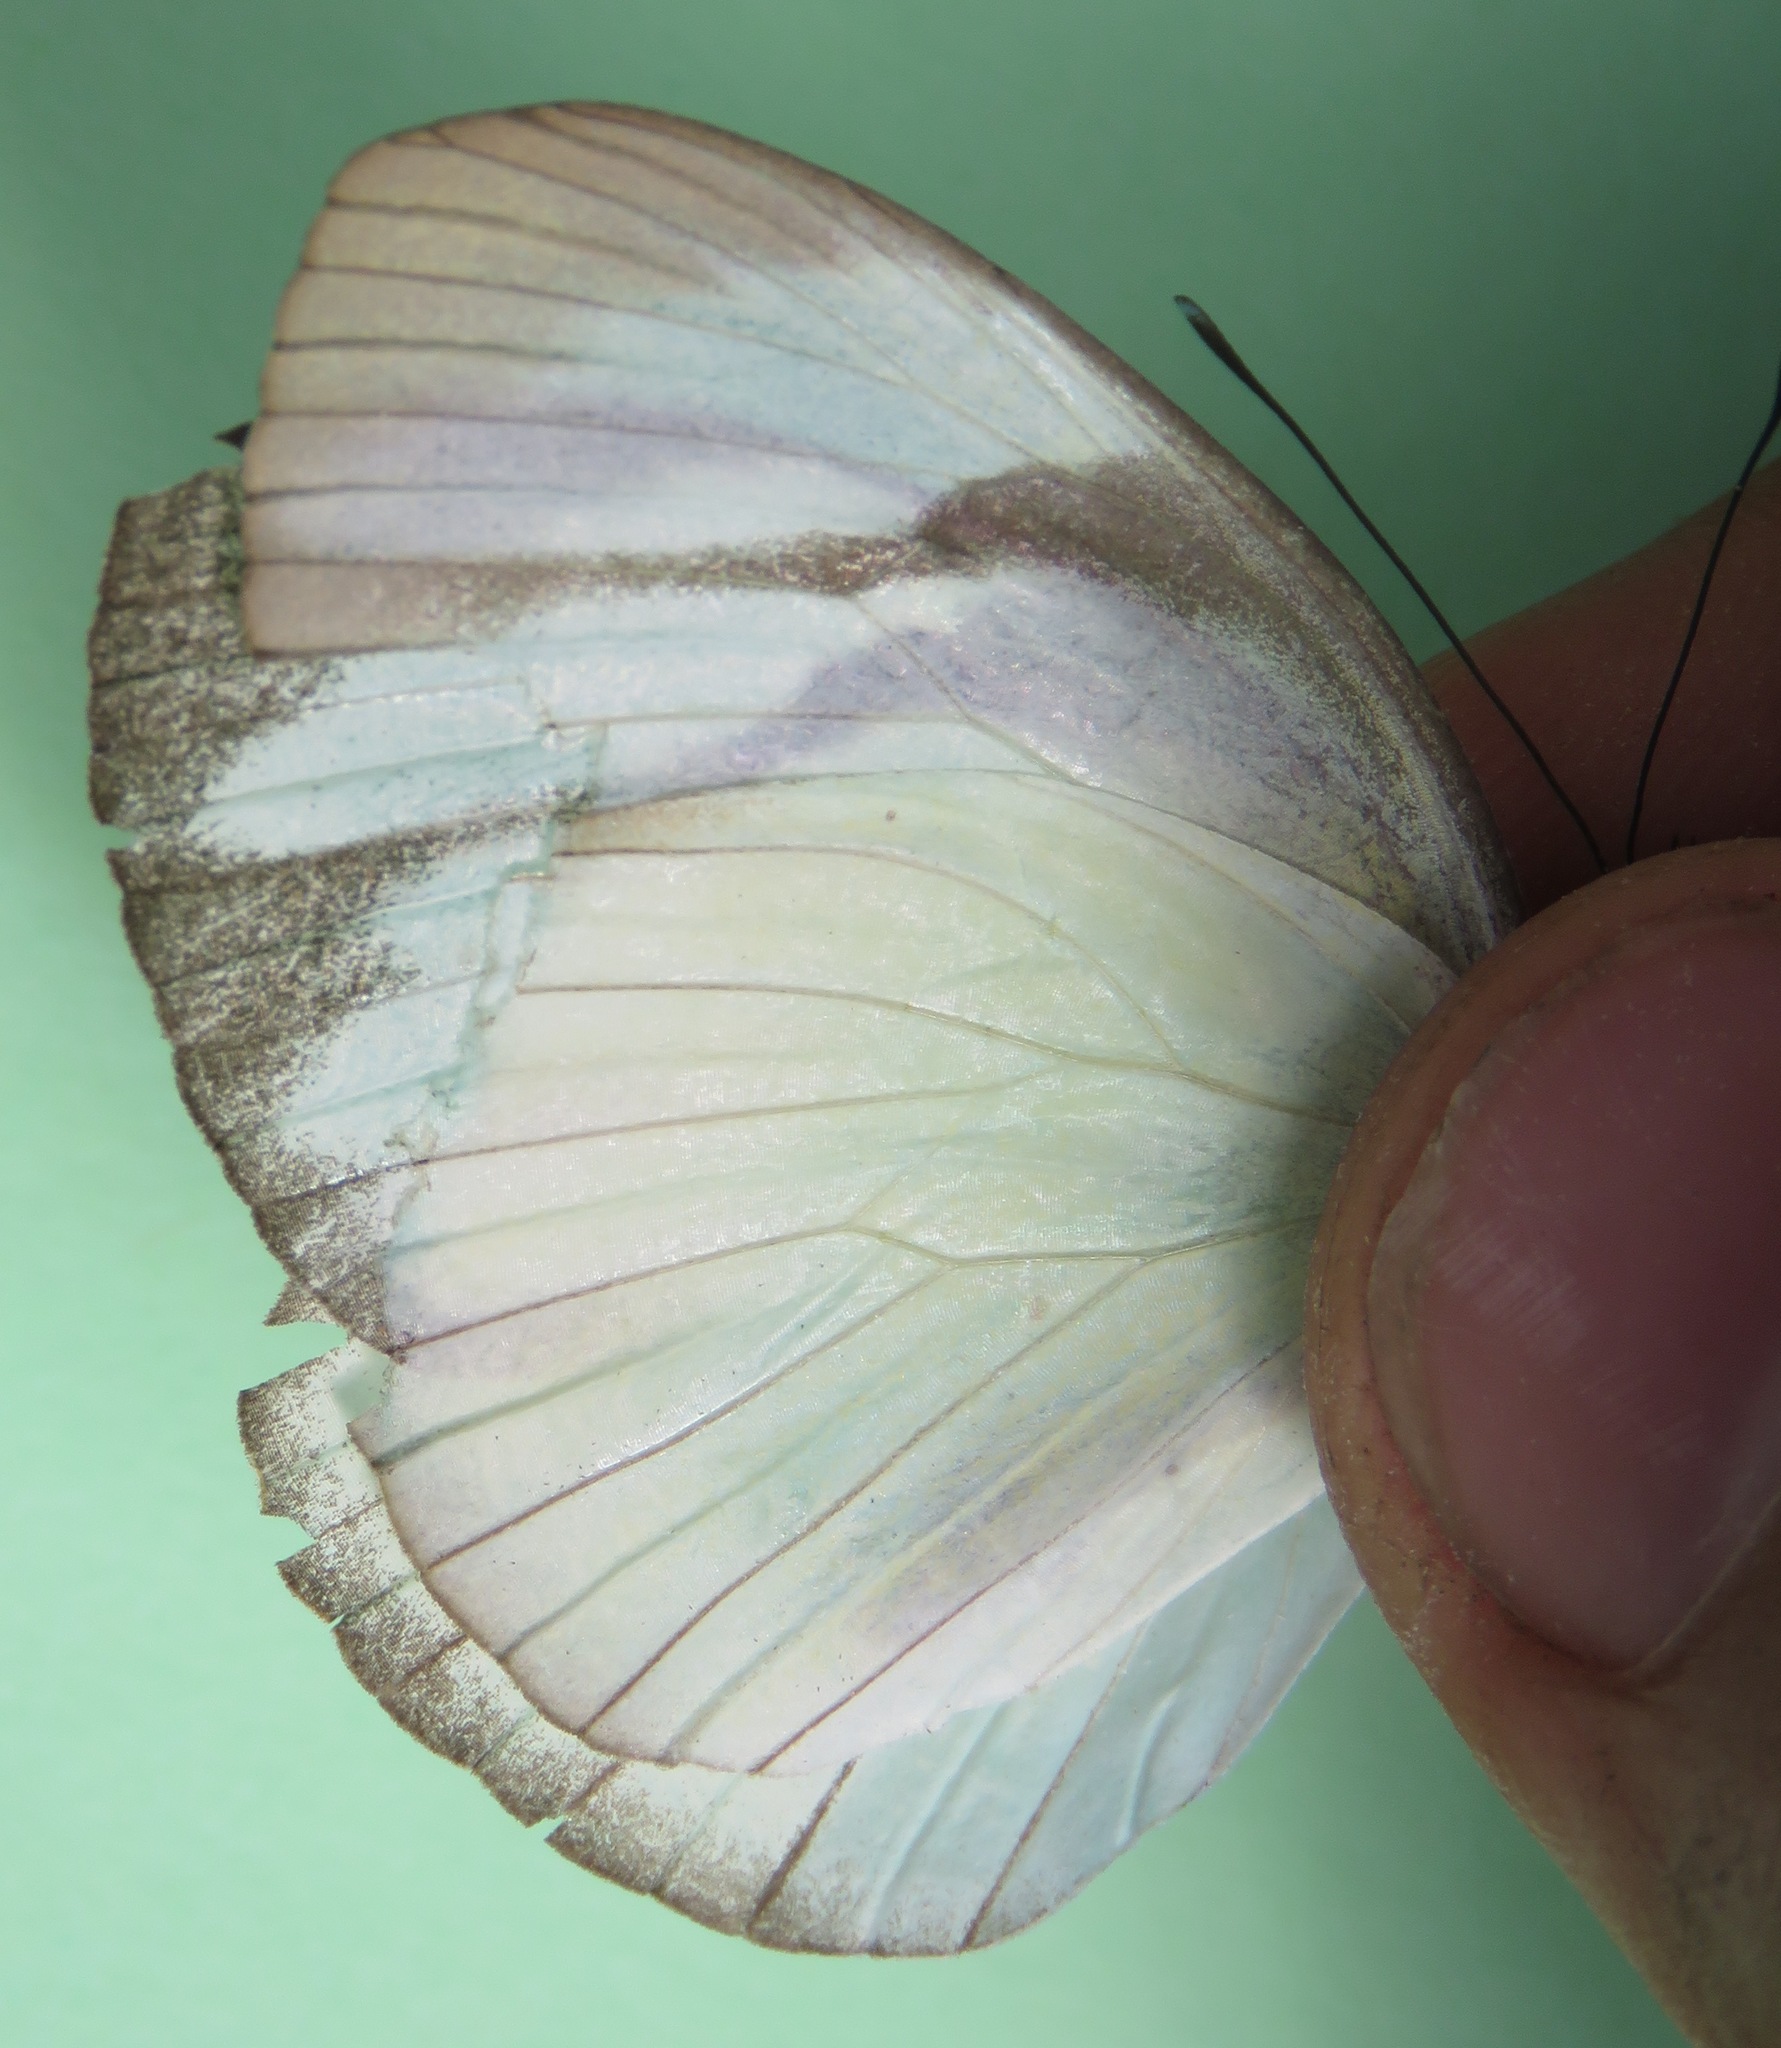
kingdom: Animalia
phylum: Arthropoda
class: Insecta
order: Lepidoptera
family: Pieridae
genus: Itaballia
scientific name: Itaballia demophile
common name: Cross-barred white
